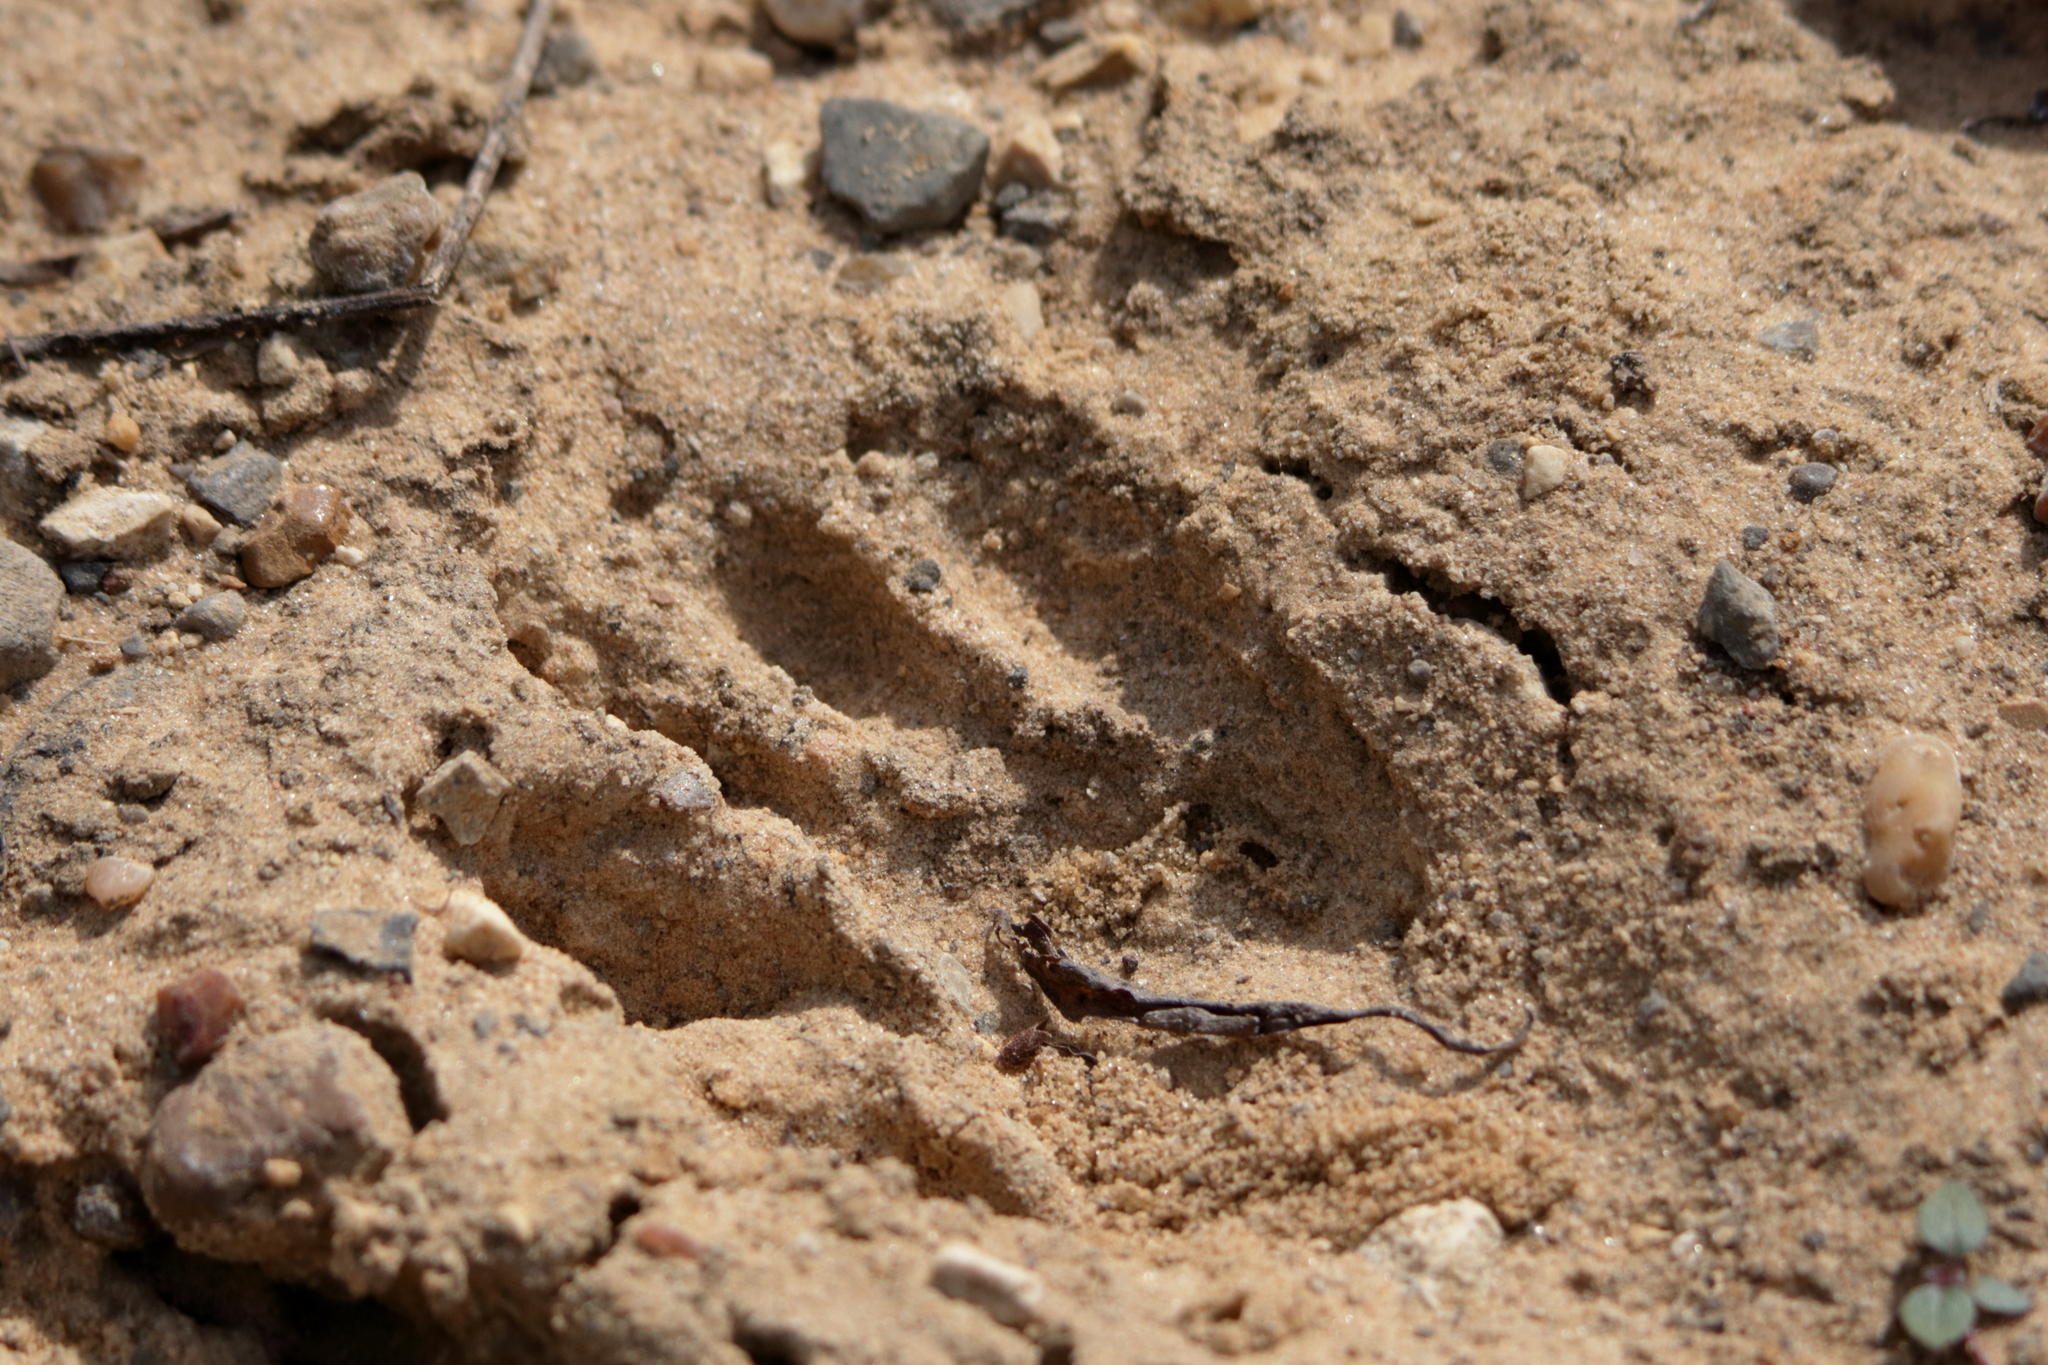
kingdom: Animalia
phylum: Chordata
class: Mammalia
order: Carnivora
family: Procyonidae
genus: Procyon
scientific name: Procyon lotor
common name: Raccoon
